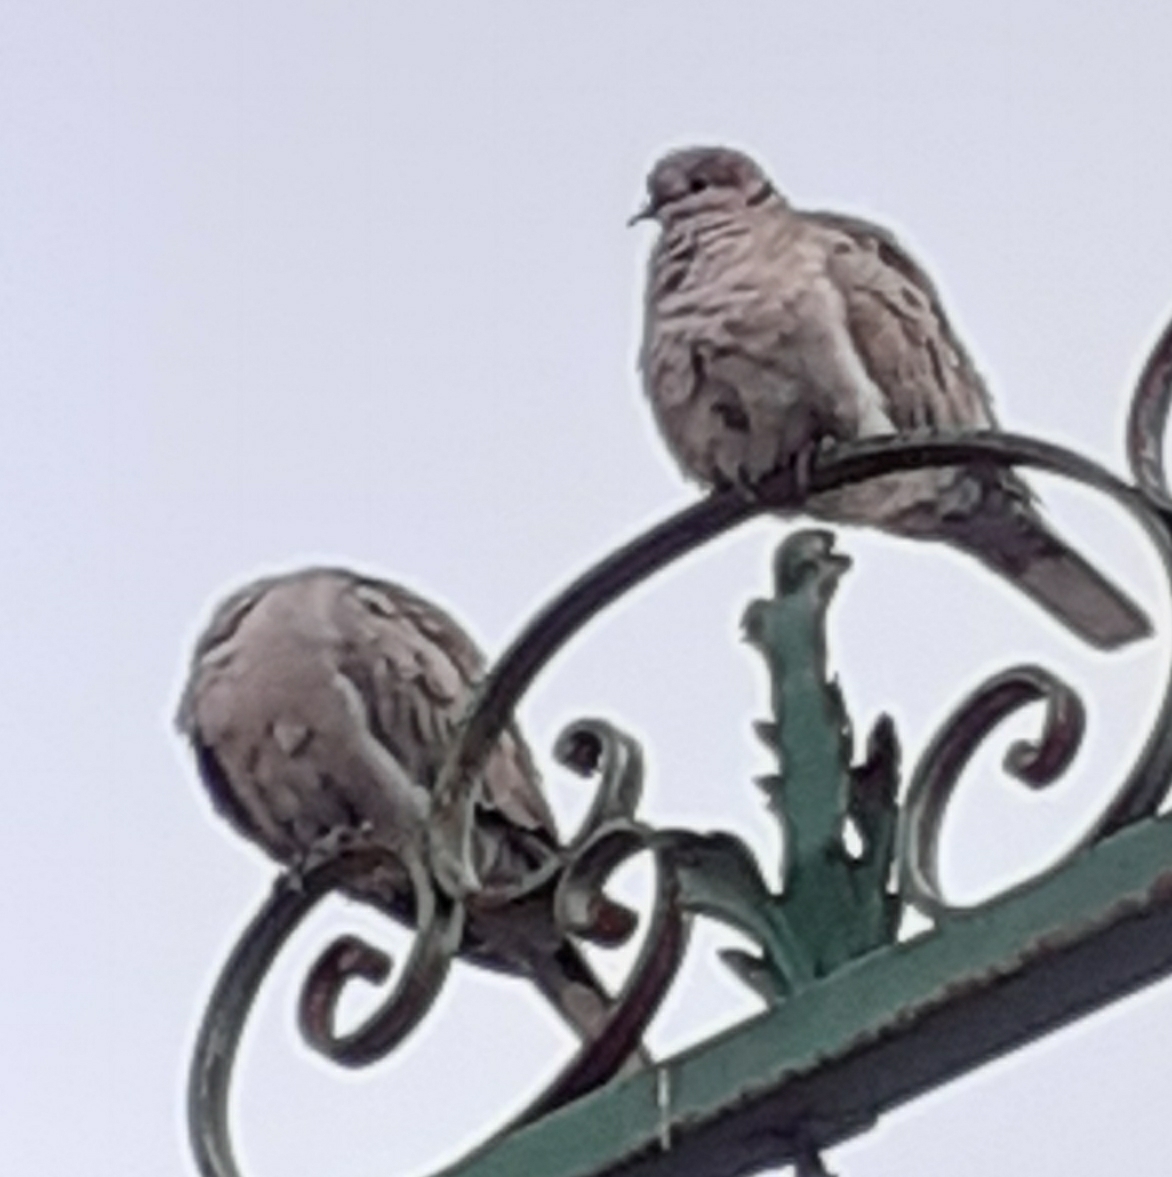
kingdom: Animalia
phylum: Chordata
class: Aves
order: Columbiformes
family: Columbidae
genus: Streptopelia
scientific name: Streptopelia decaocto
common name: Eurasian collared dove
